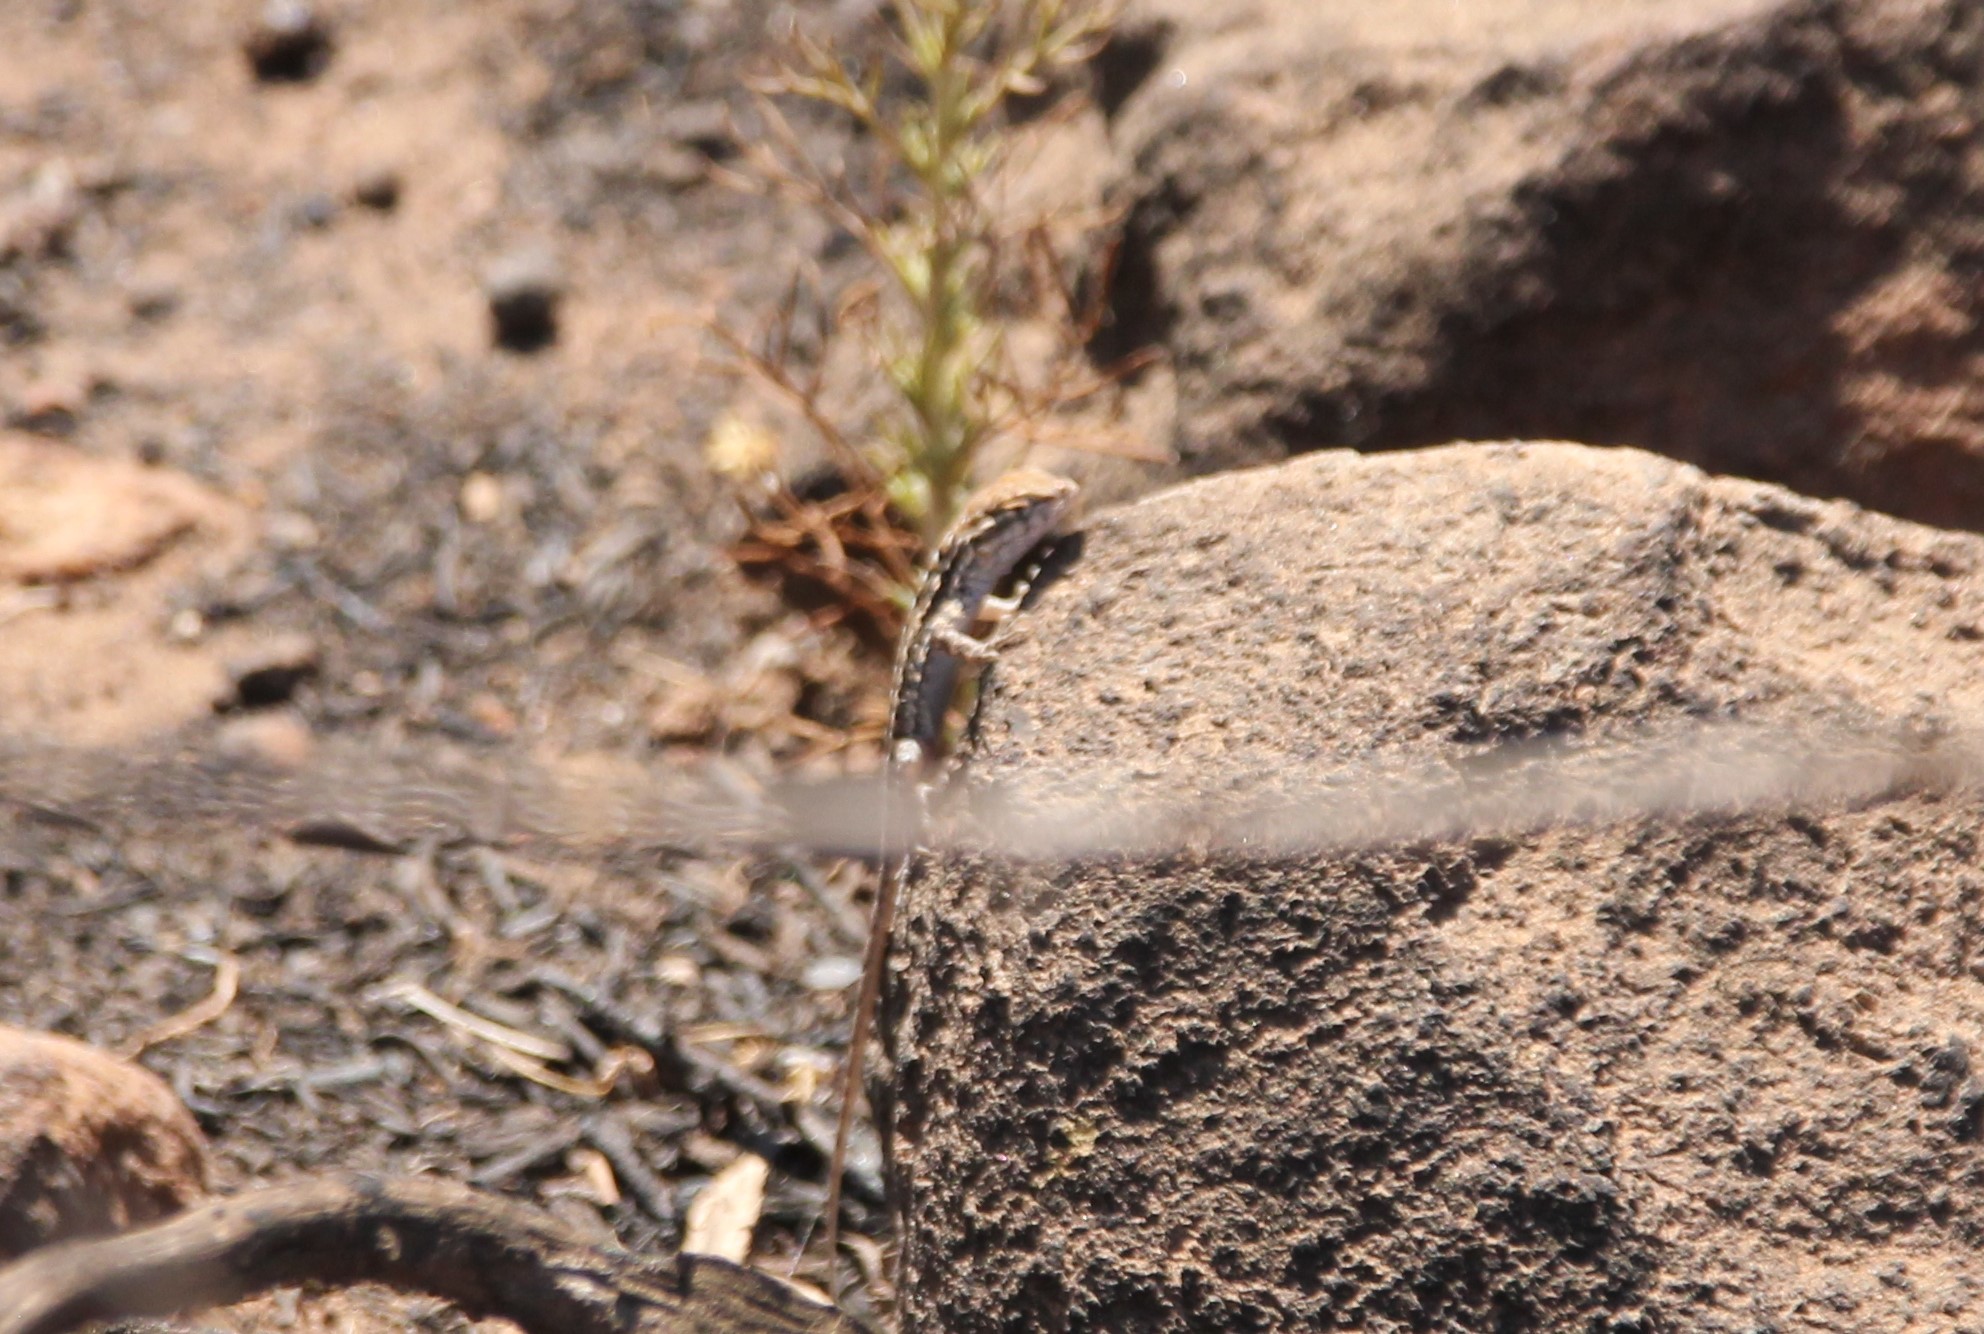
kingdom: Animalia
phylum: Chordata
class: Squamata
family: Phrynosomatidae
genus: Uta
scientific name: Uta stansburiana
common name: Side-blotched lizard
